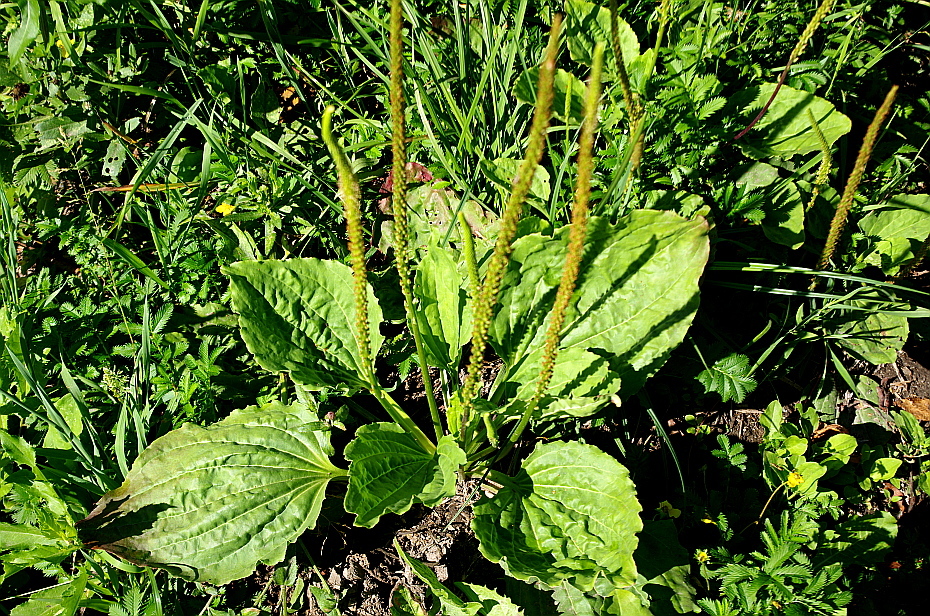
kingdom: Plantae
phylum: Tracheophyta
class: Magnoliopsida
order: Lamiales
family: Plantaginaceae
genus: Plantago
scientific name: Plantago major
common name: Common plantain
